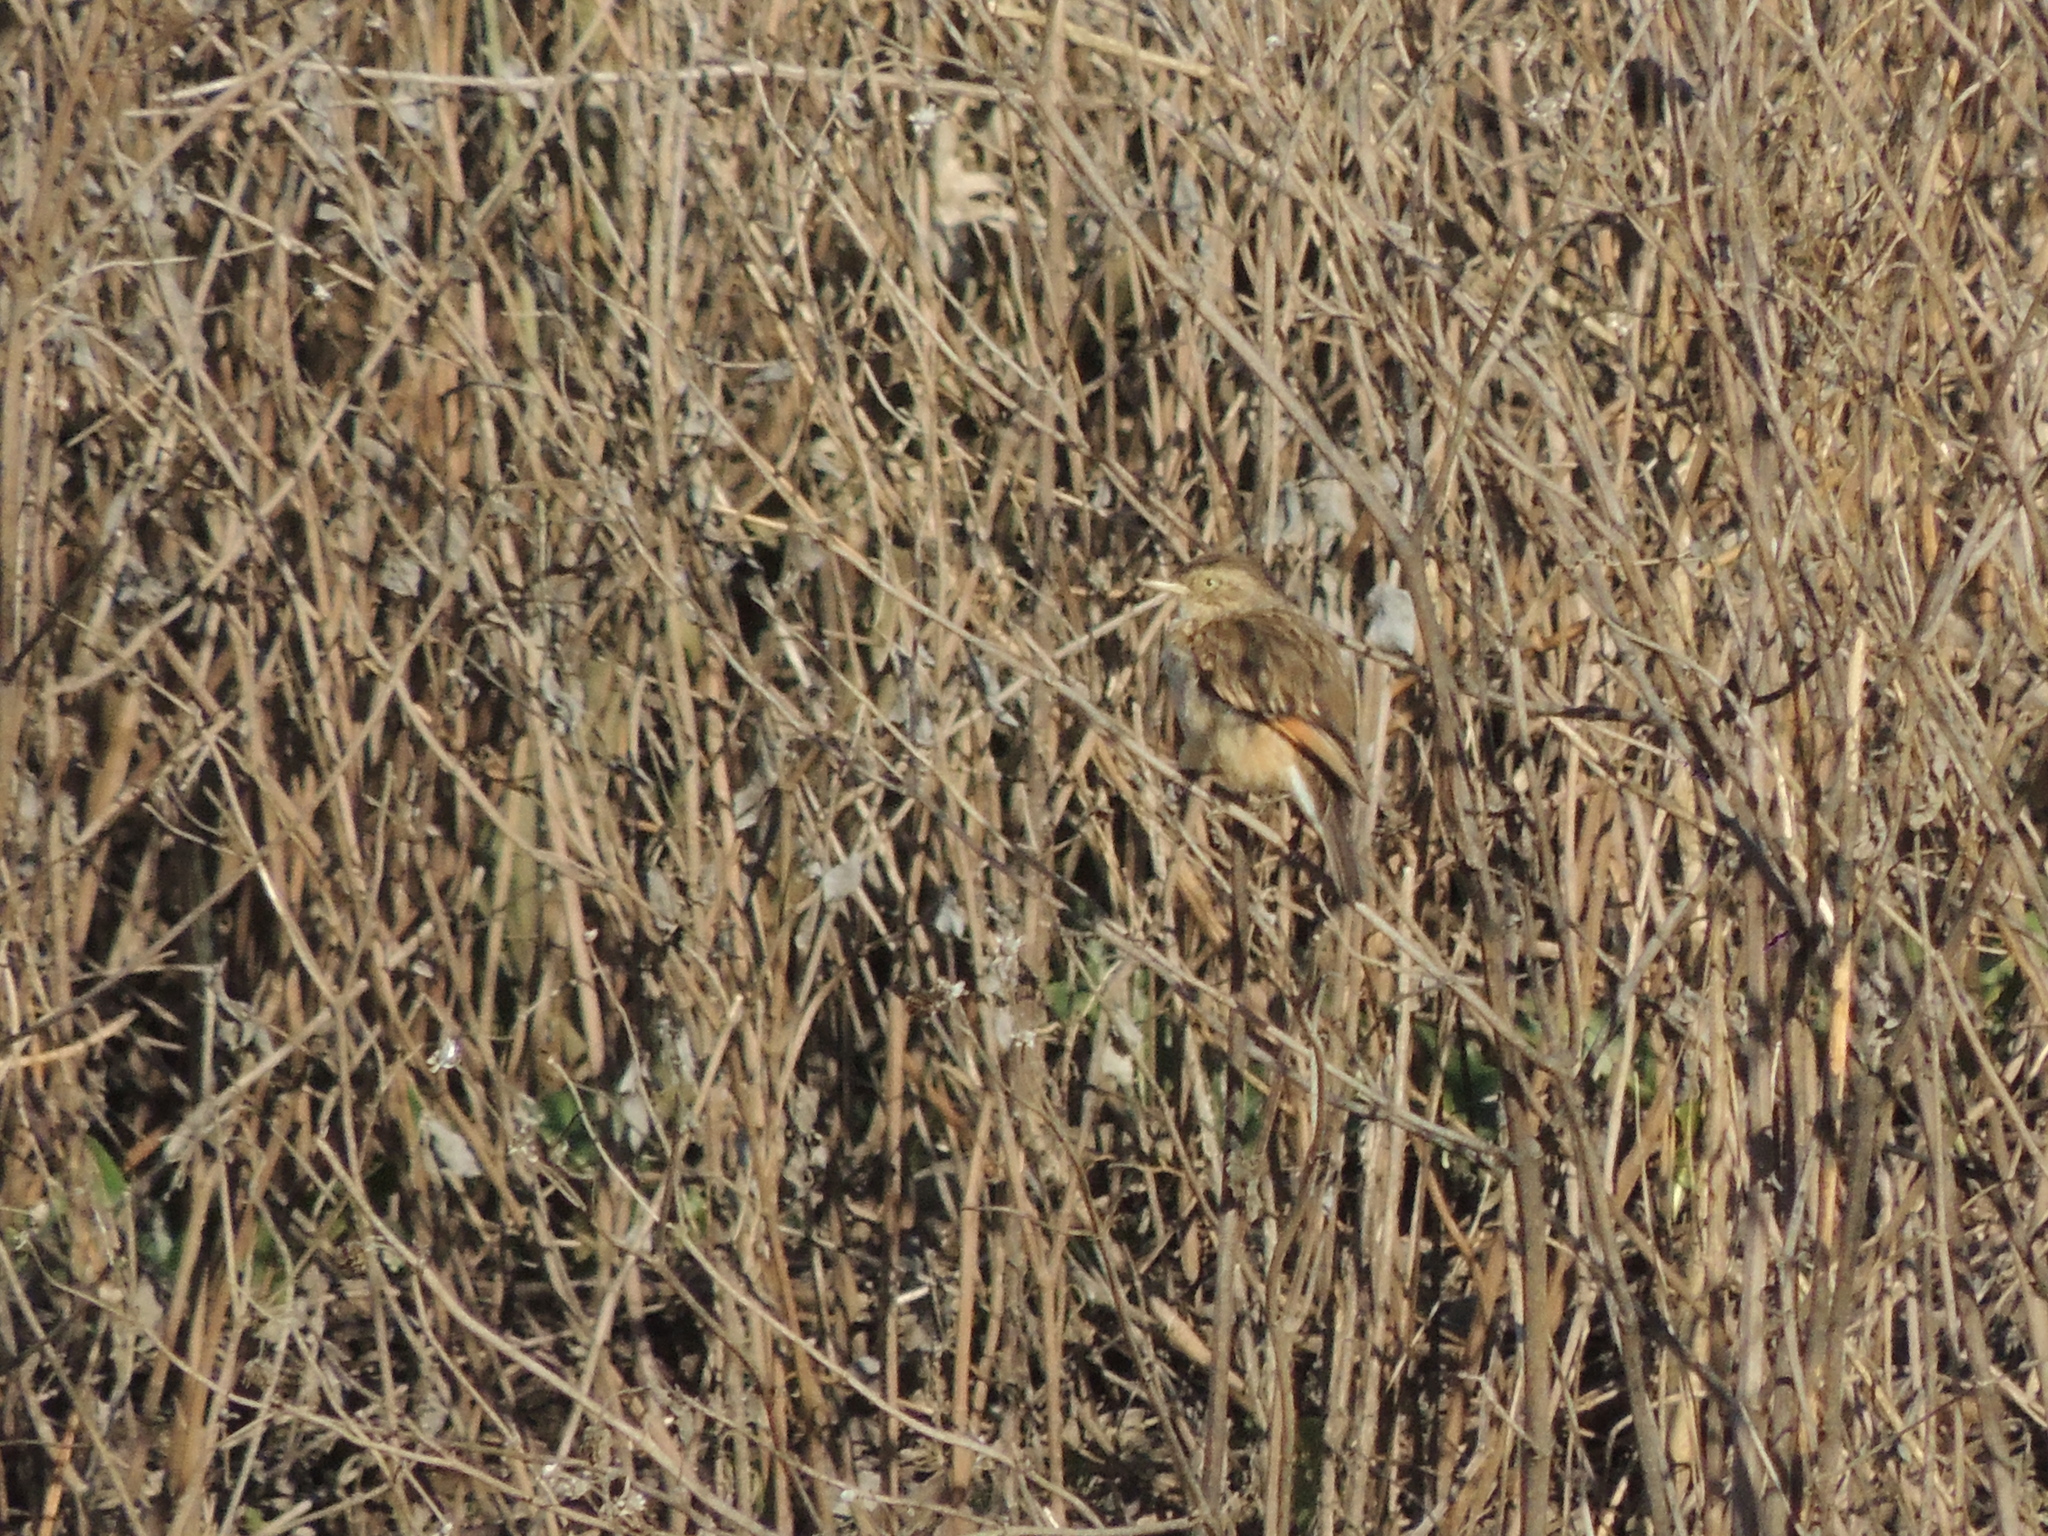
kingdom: Animalia
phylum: Chordata
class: Aves
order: Passeriformes
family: Tyrannidae
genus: Hymenops
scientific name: Hymenops perspicillatus
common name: Spectacled tyrant
